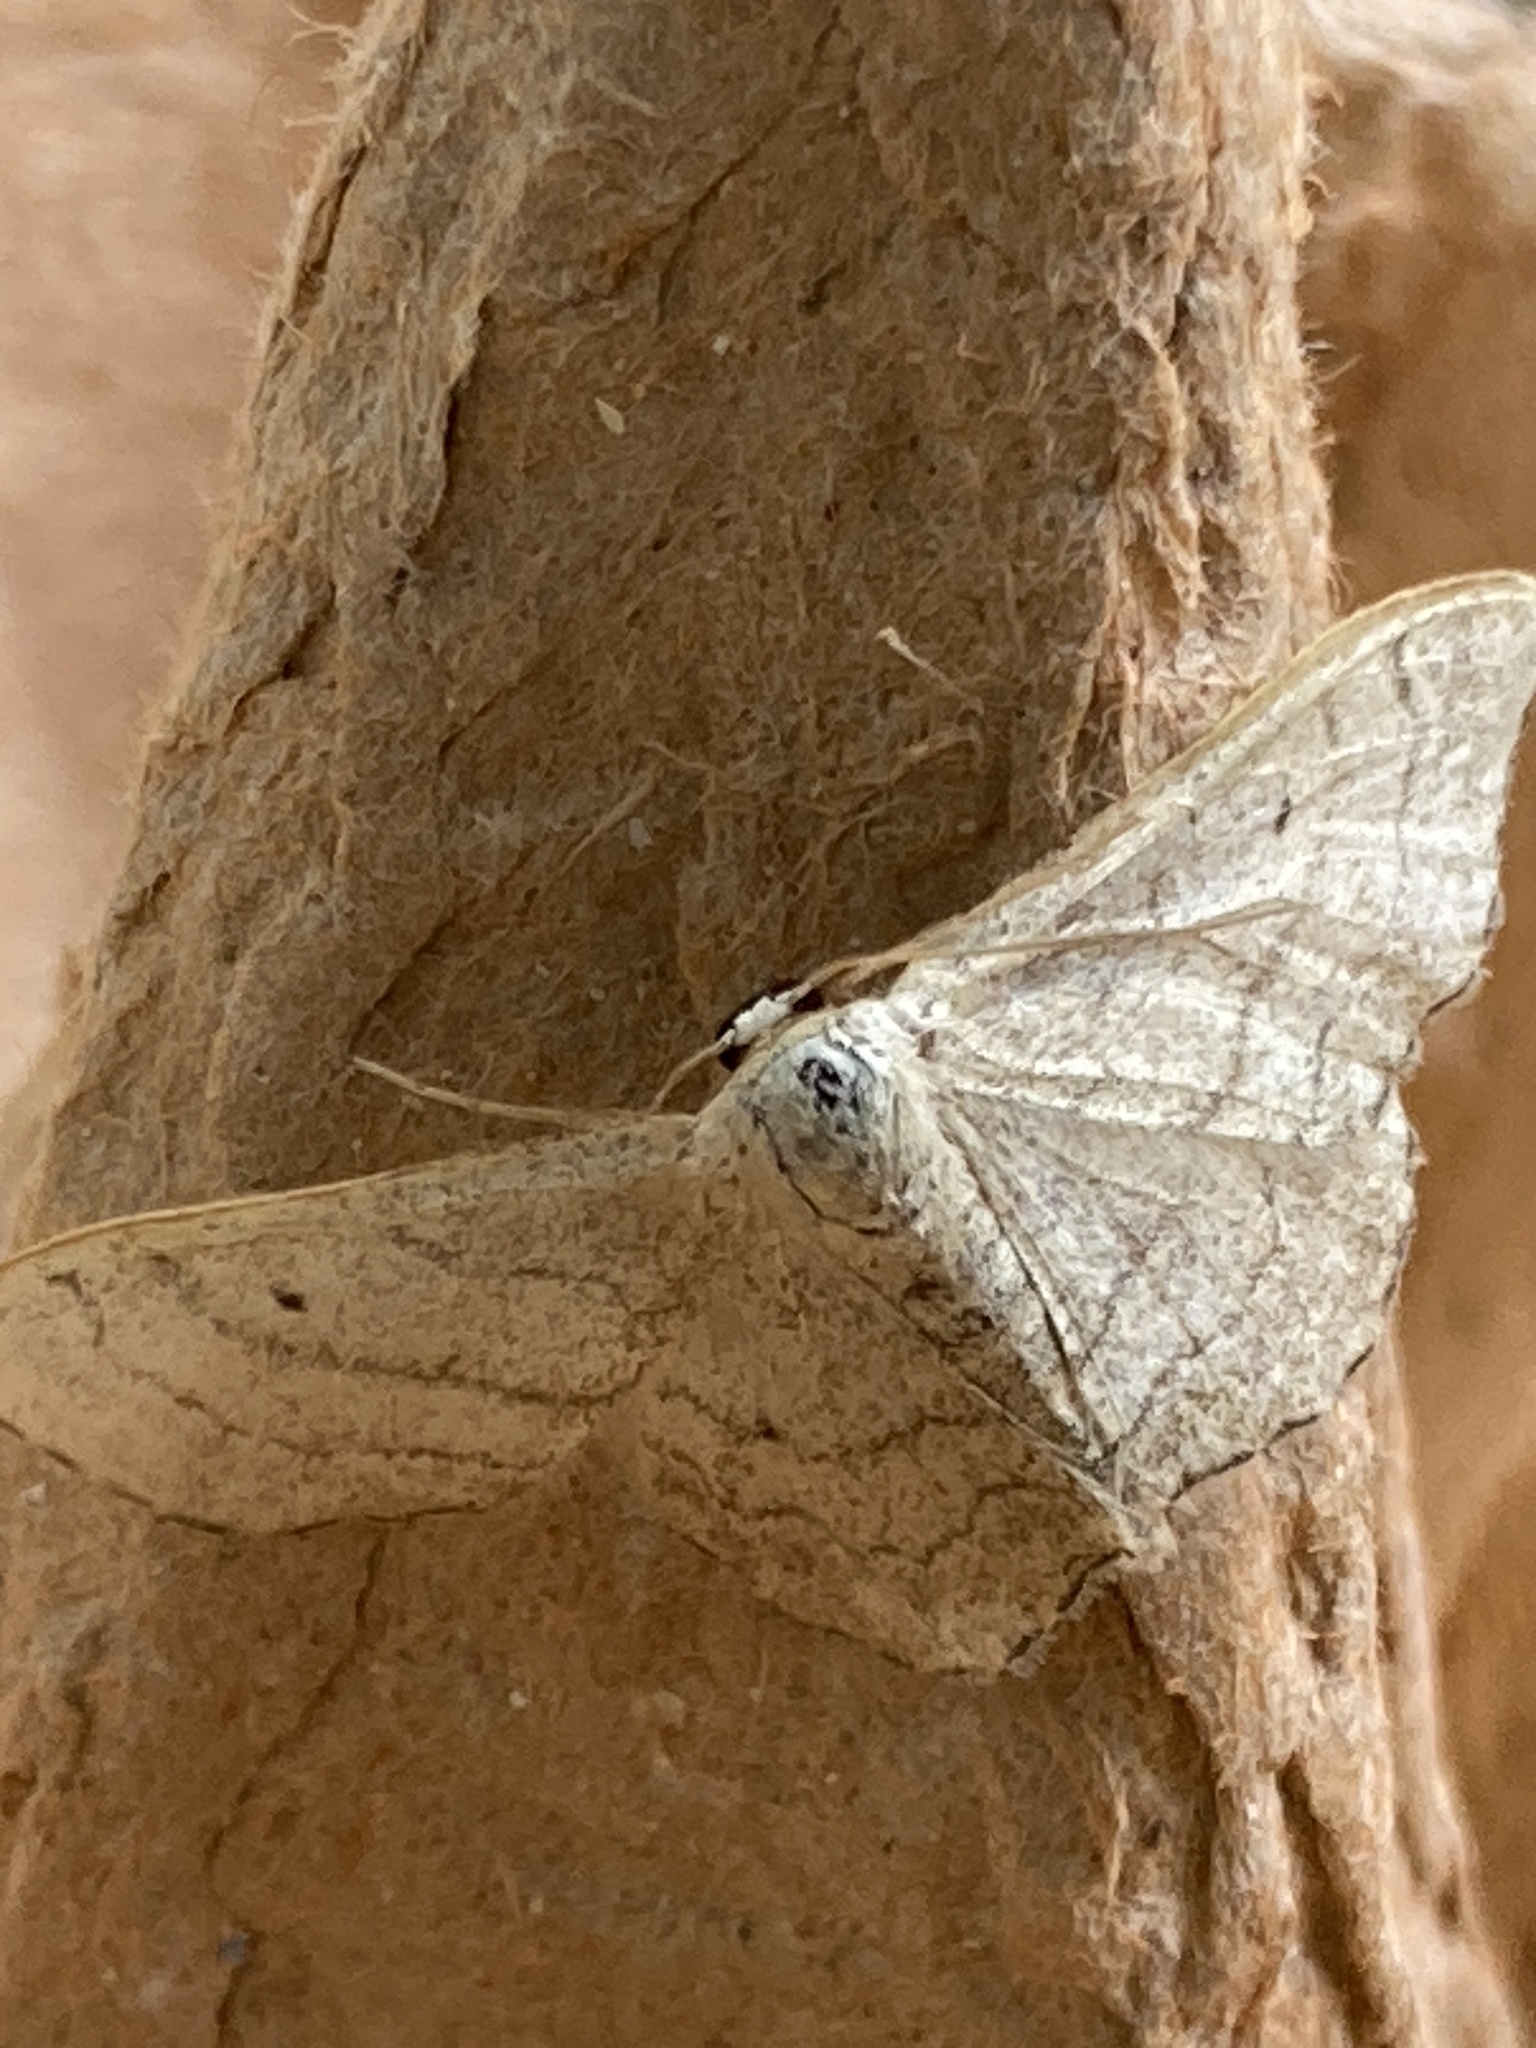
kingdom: Animalia
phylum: Arthropoda
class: Insecta
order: Lepidoptera
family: Geometridae
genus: Idaea
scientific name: Idaea aversata
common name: Riband wave
